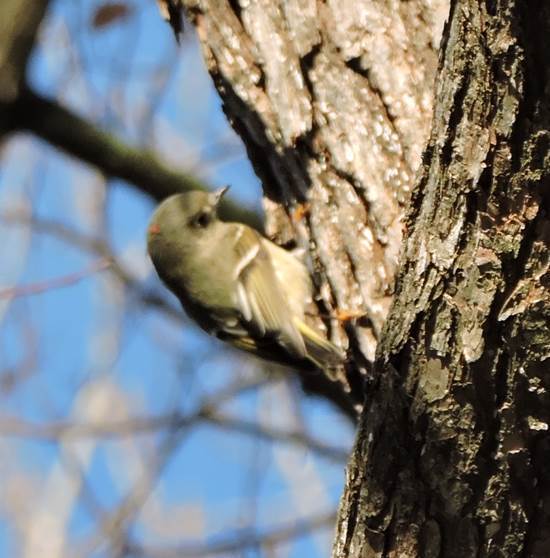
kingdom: Animalia
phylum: Chordata
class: Aves
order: Passeriformes
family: Regulidae
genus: Regulus
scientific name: Regulus calendula
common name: Ruby-crowned kinglet
